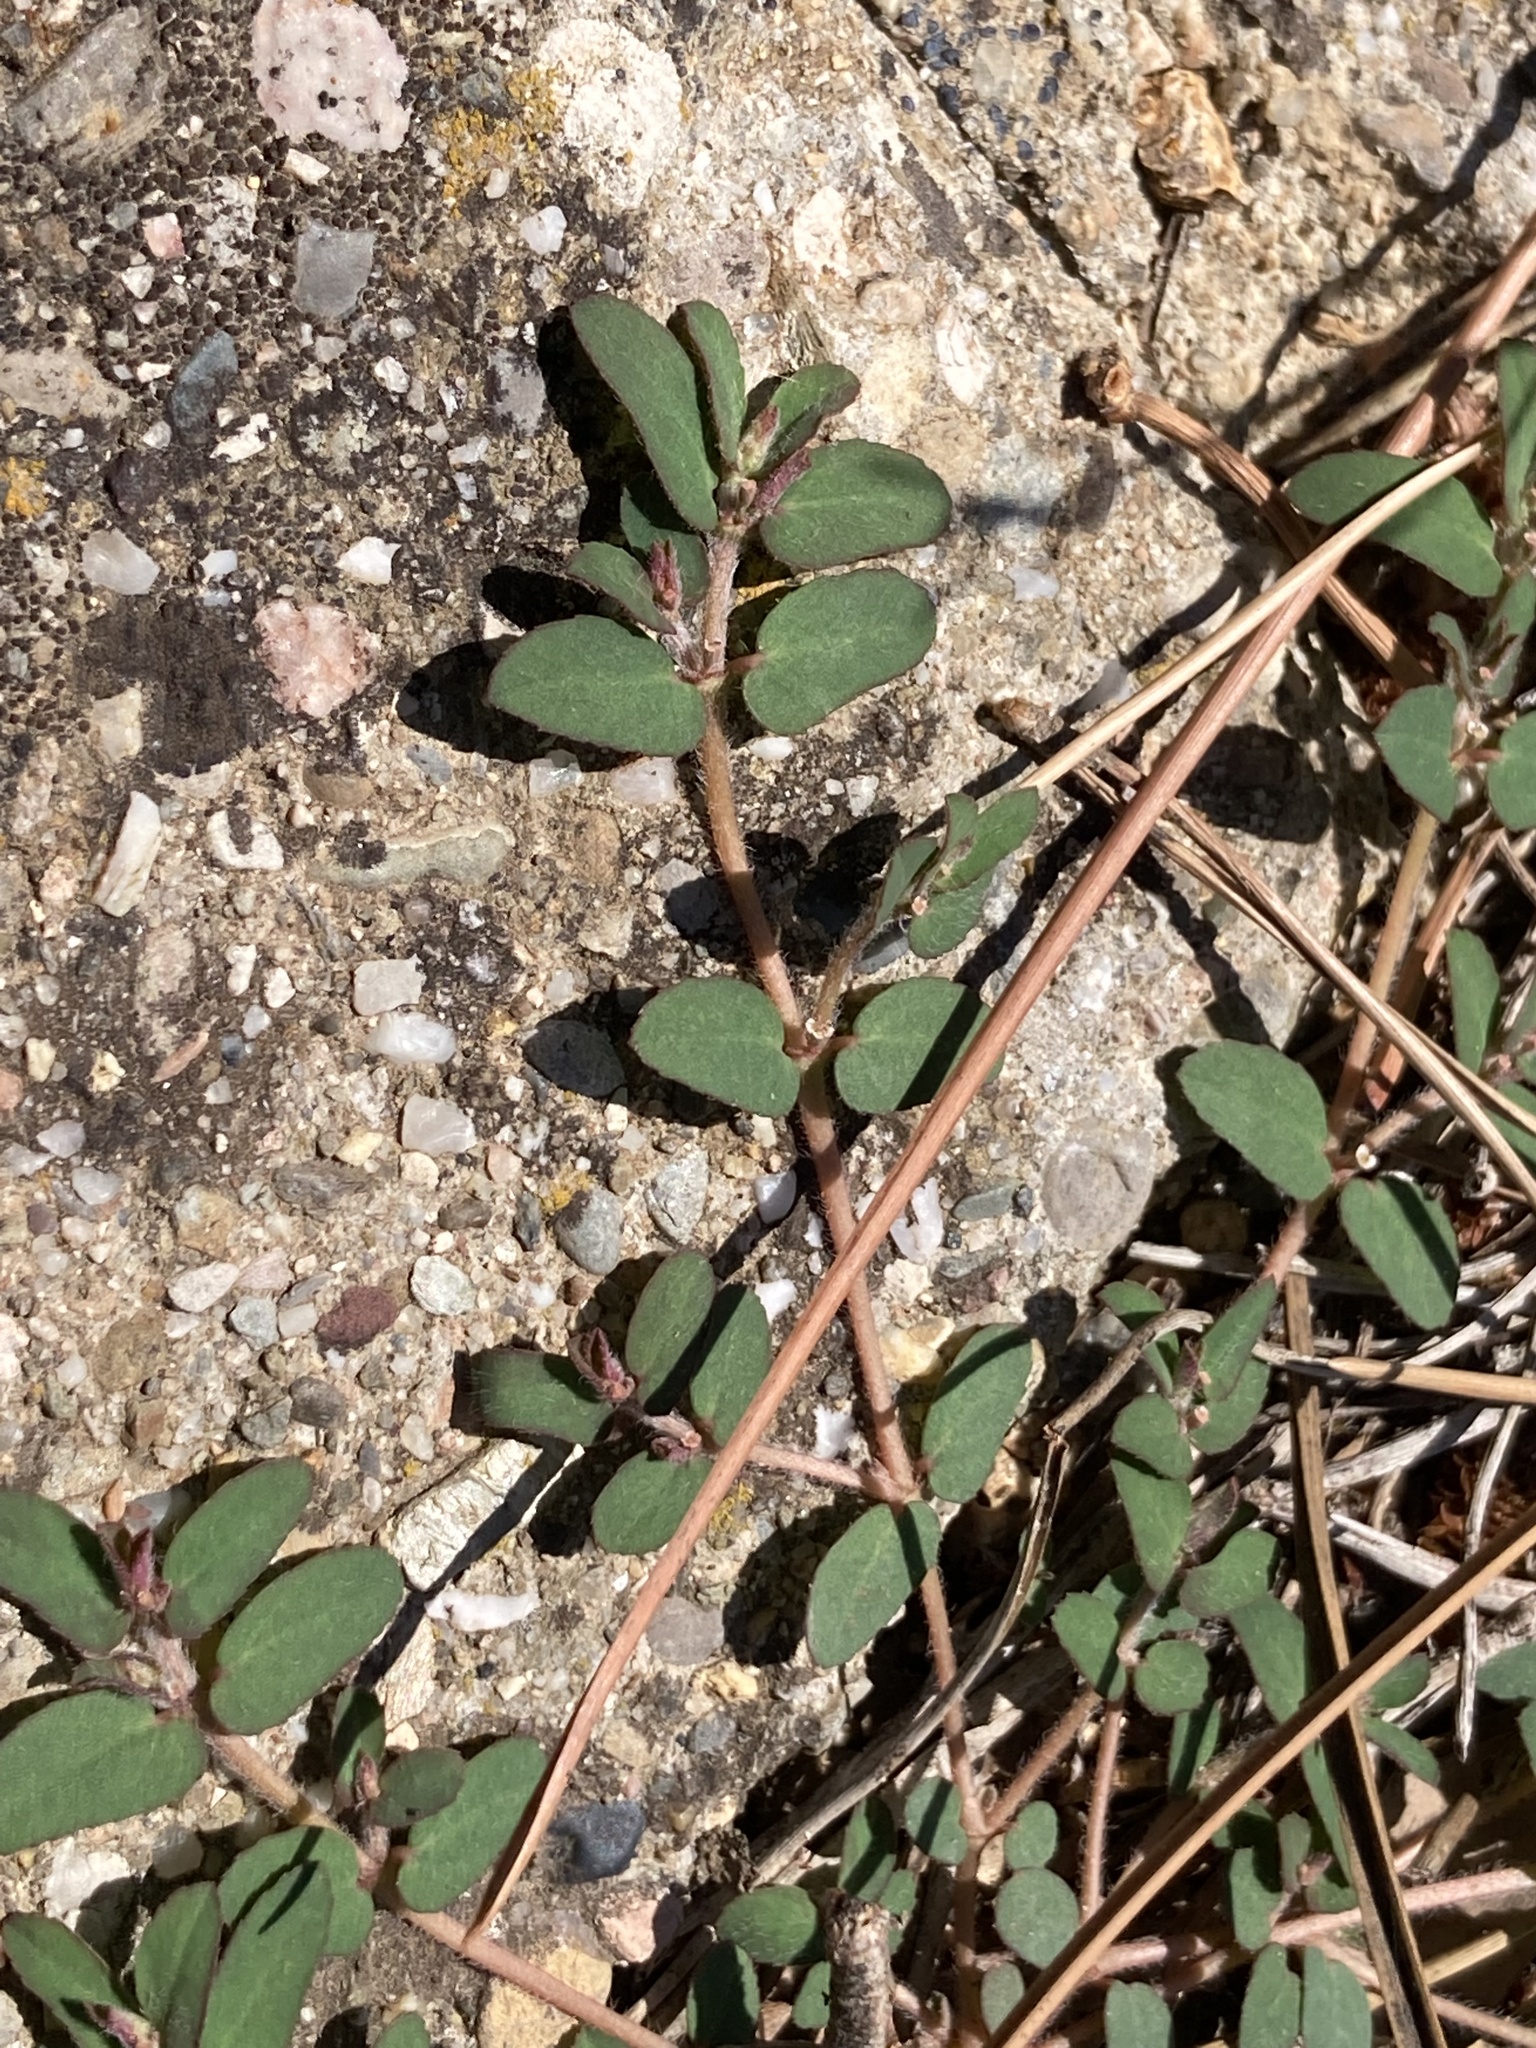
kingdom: Plantae
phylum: Tracheophyta
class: Magnoliopsida
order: Malpighiales
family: Euphorbiaceae
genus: Euphorbia
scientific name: Euphorbia maculata
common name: Spotted spurge
